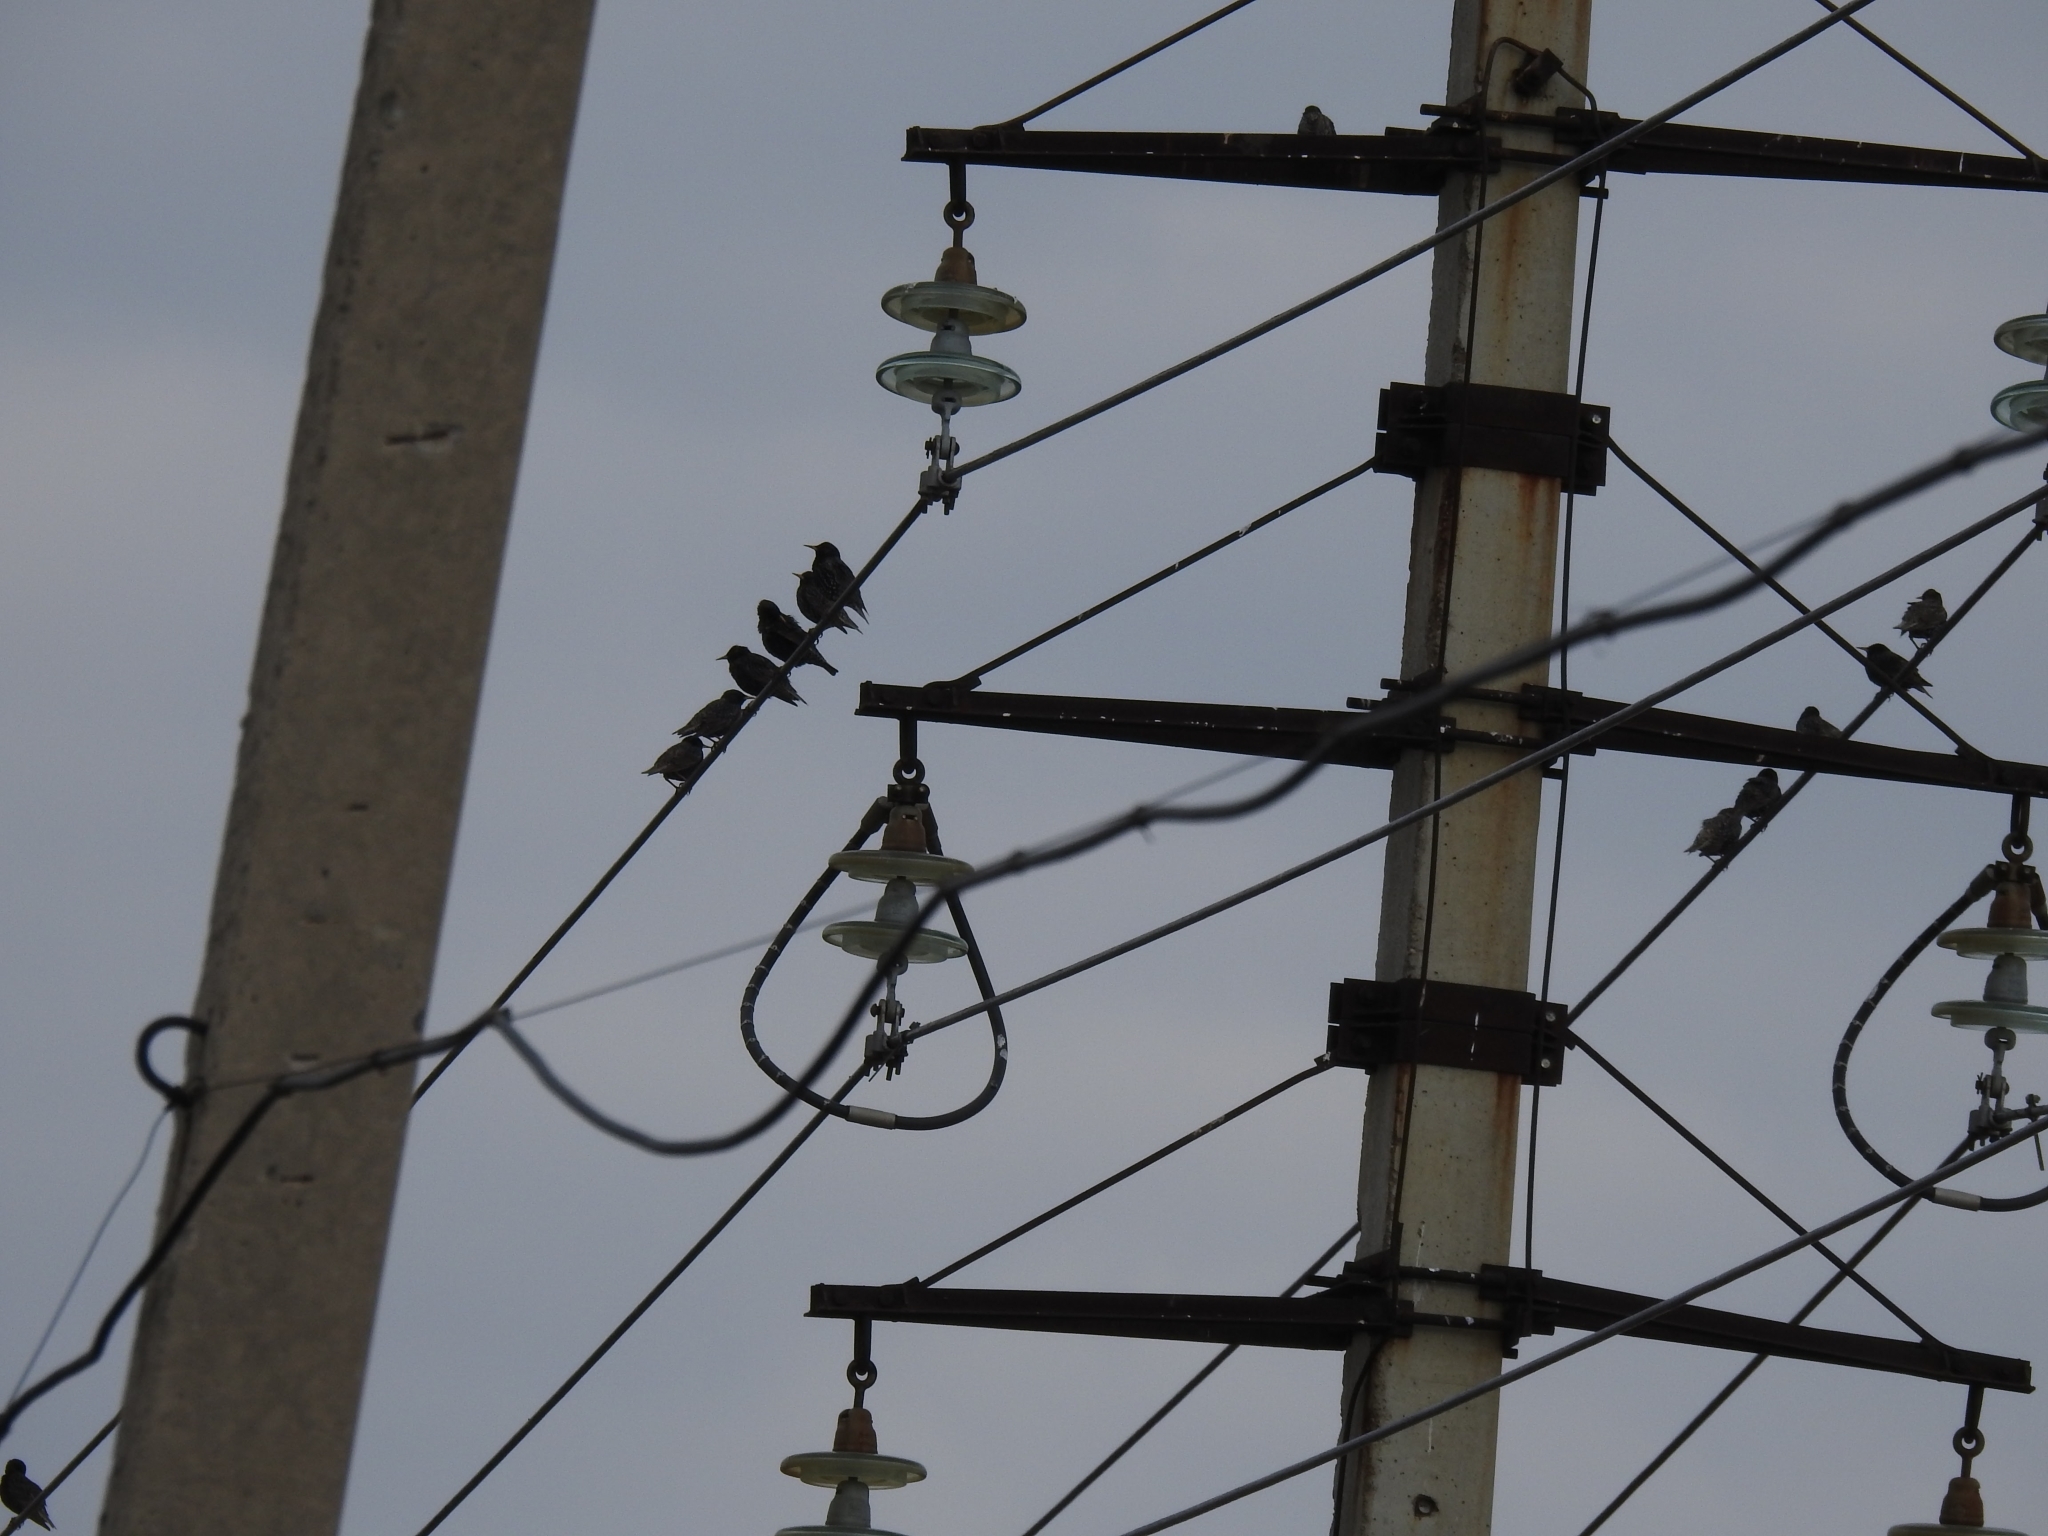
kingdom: Animalia
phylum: Chordata
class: Aves
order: Passeriformes
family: Sturnidae
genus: Sturnus
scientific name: Sturnus vulgaris
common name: Common starling
